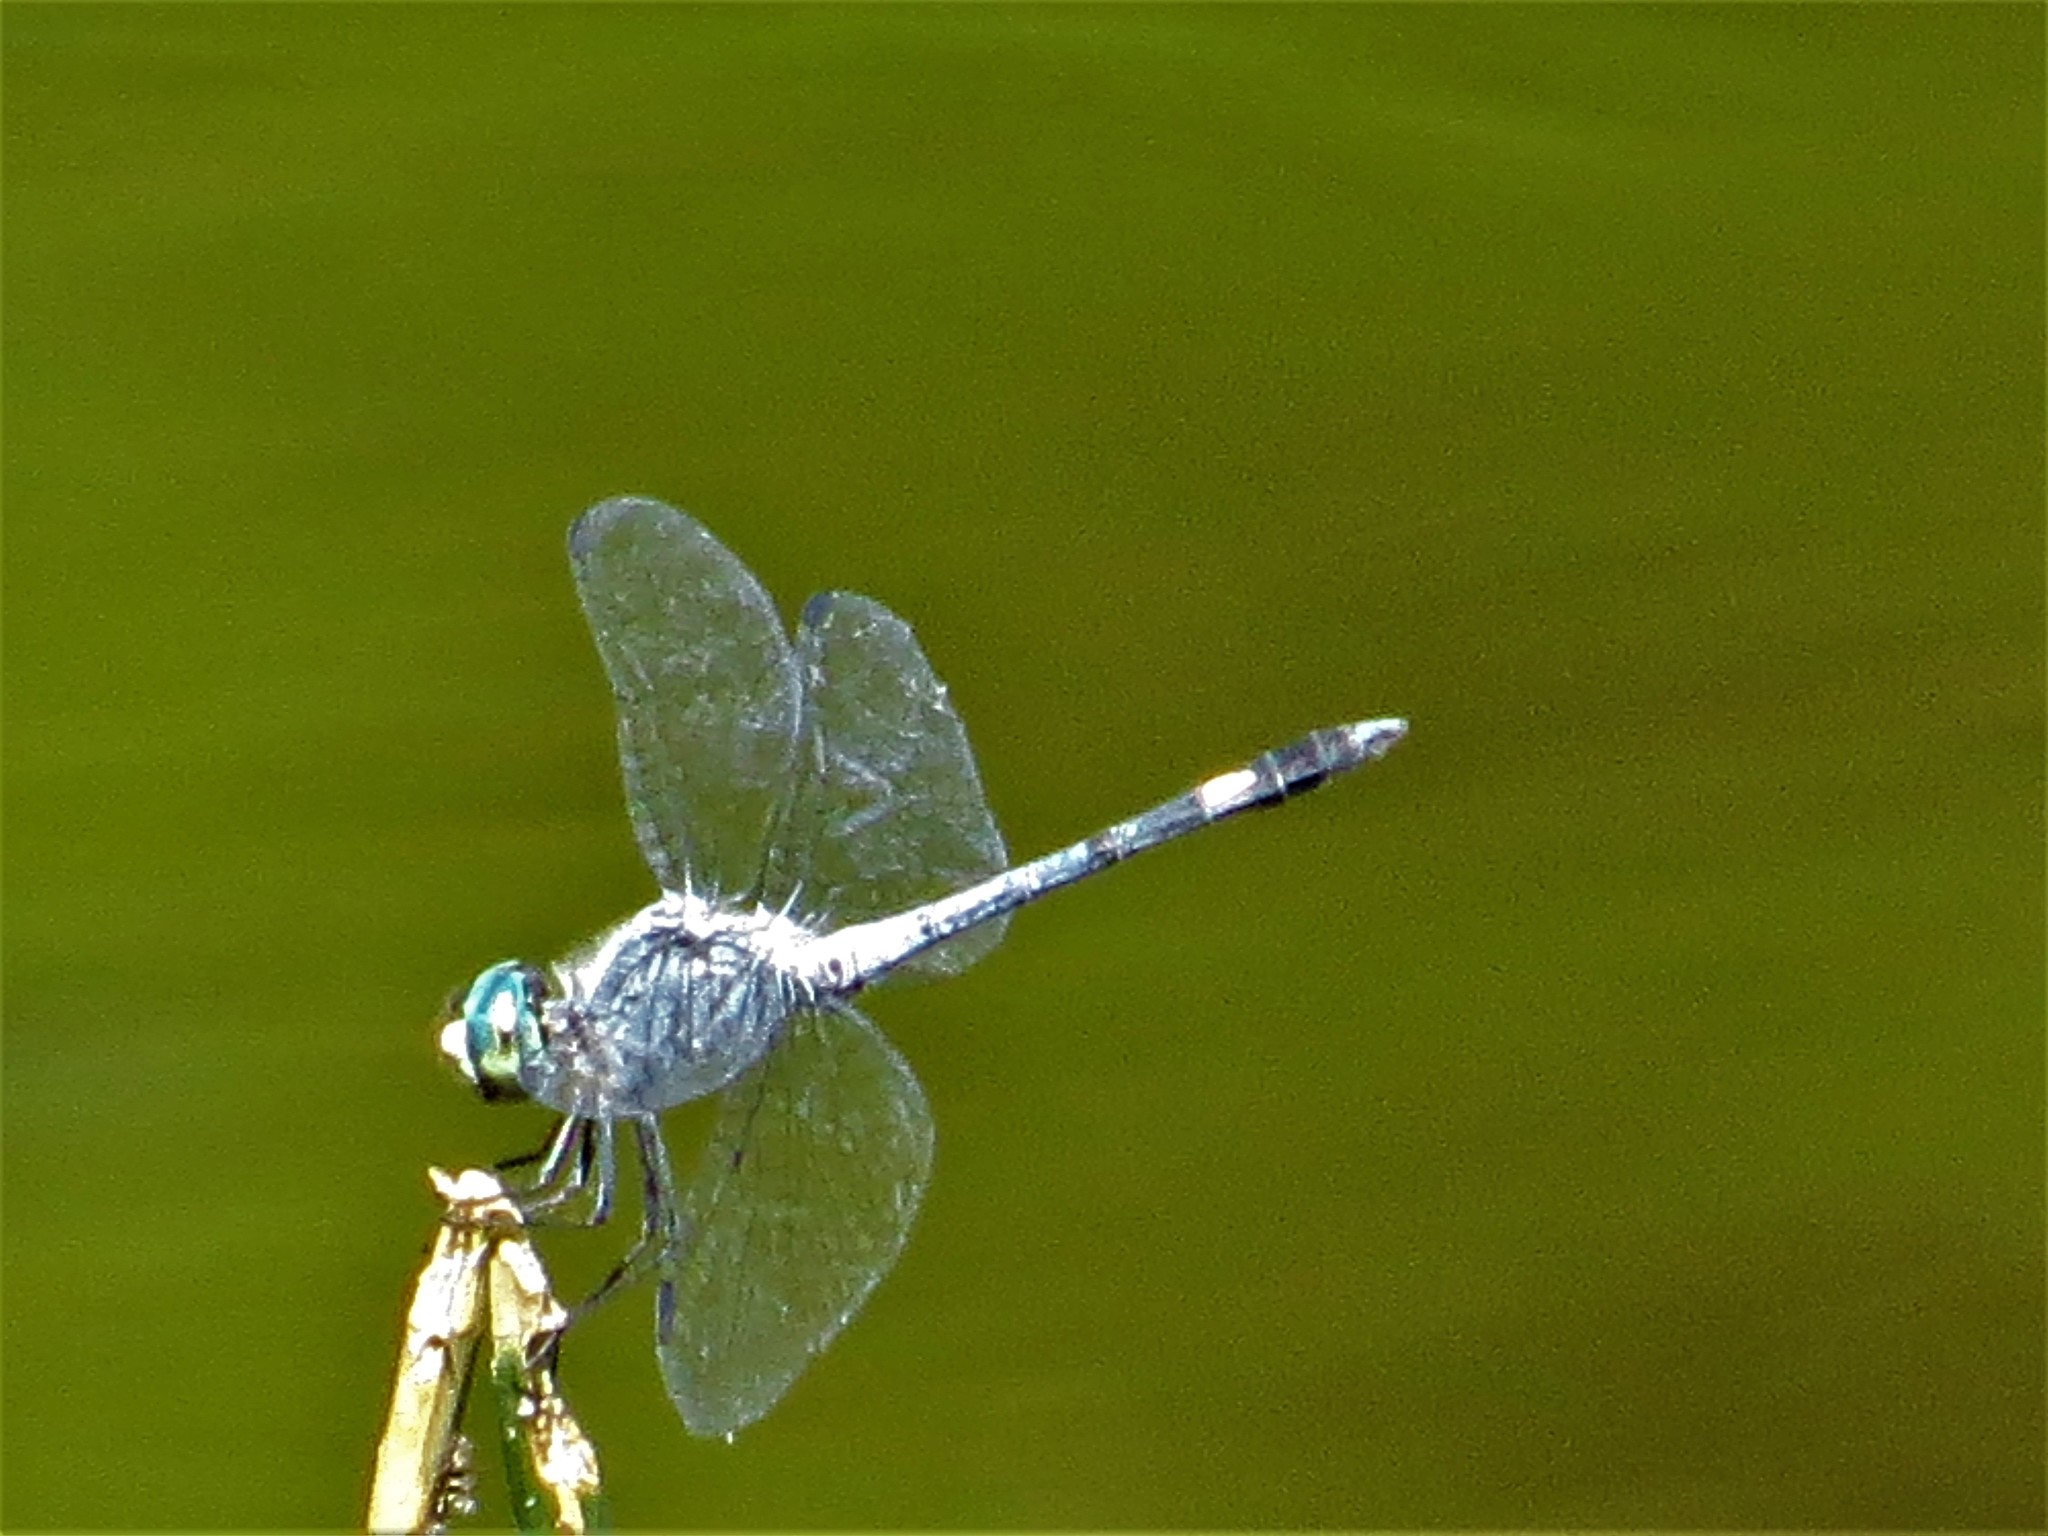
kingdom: Animalia
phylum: Arthropoda
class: Insecta
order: Odonata
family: Libellulidae
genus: Micrathyria
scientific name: Micrathyria aequalis
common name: Spot-tailed dasher
